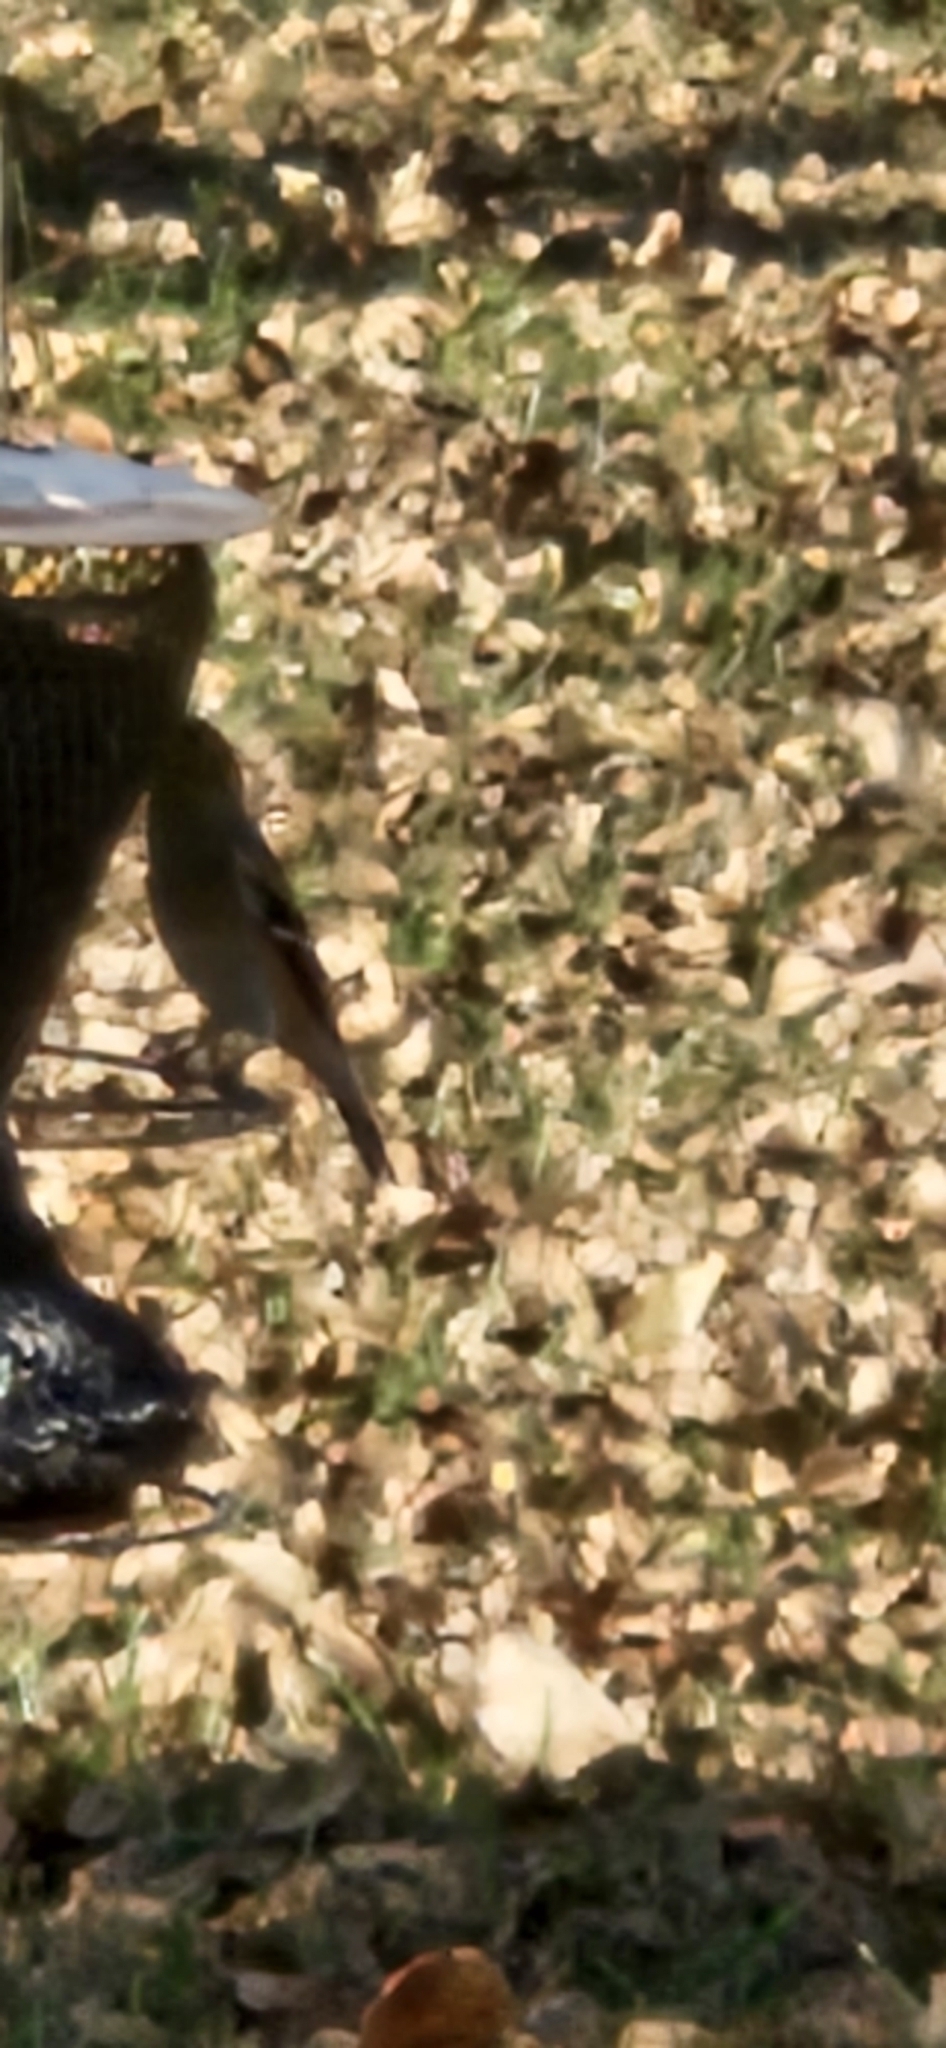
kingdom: Animalia
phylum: Chordata
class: Aves
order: Passeriformes
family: Fringillidae
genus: Spinus
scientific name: Spinus tristis
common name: American goldfinch
